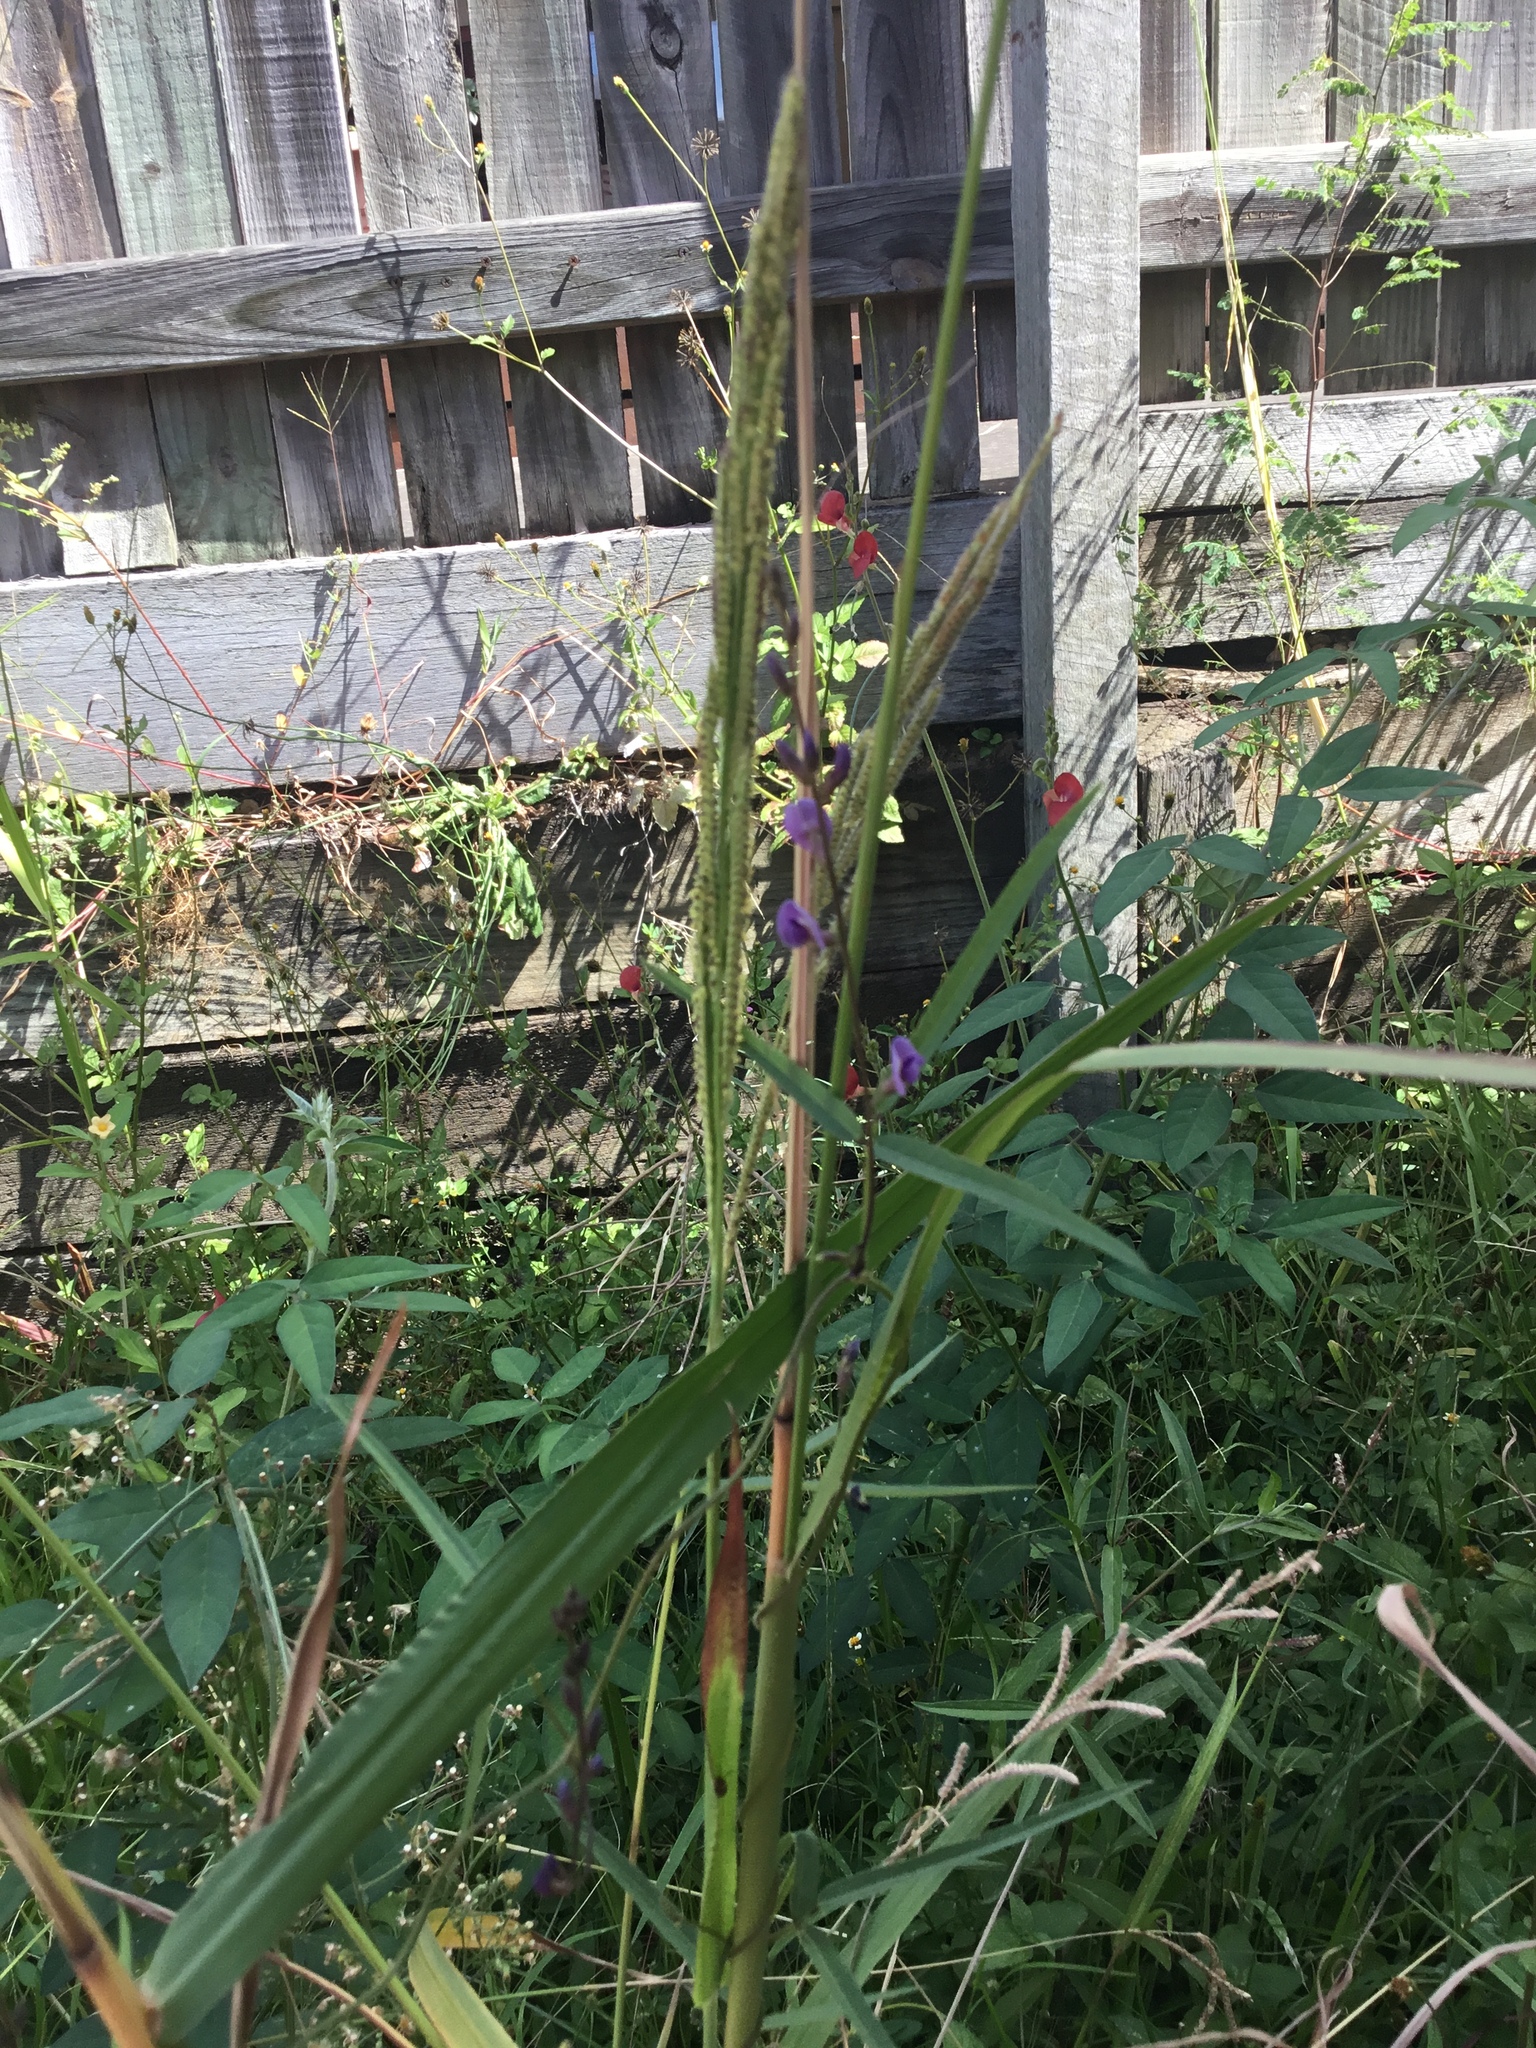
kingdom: Plantae
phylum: Tracheophyta
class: Magnoliopsida
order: Fabales
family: Fabaceae
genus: Macroptilium
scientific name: Macroptilium lathyroides
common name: Wild bushbean
